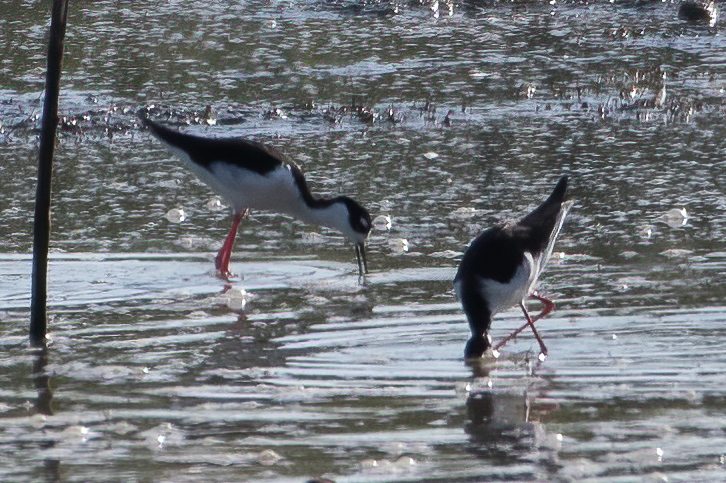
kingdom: Animalia
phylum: Chordata
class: Aves
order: Charadriiformes
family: Recurvirostridae
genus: Himantopus
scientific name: Himantopus mexicanus
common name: Black-necked stilt
